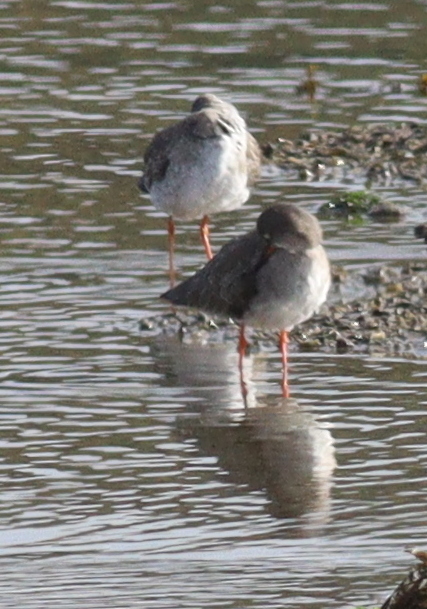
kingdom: Animalia
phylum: Chordata
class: Aves
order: Charadriiformes
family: Scolopacidae
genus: Tringa
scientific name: Tringa totanus
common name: Common redshank
